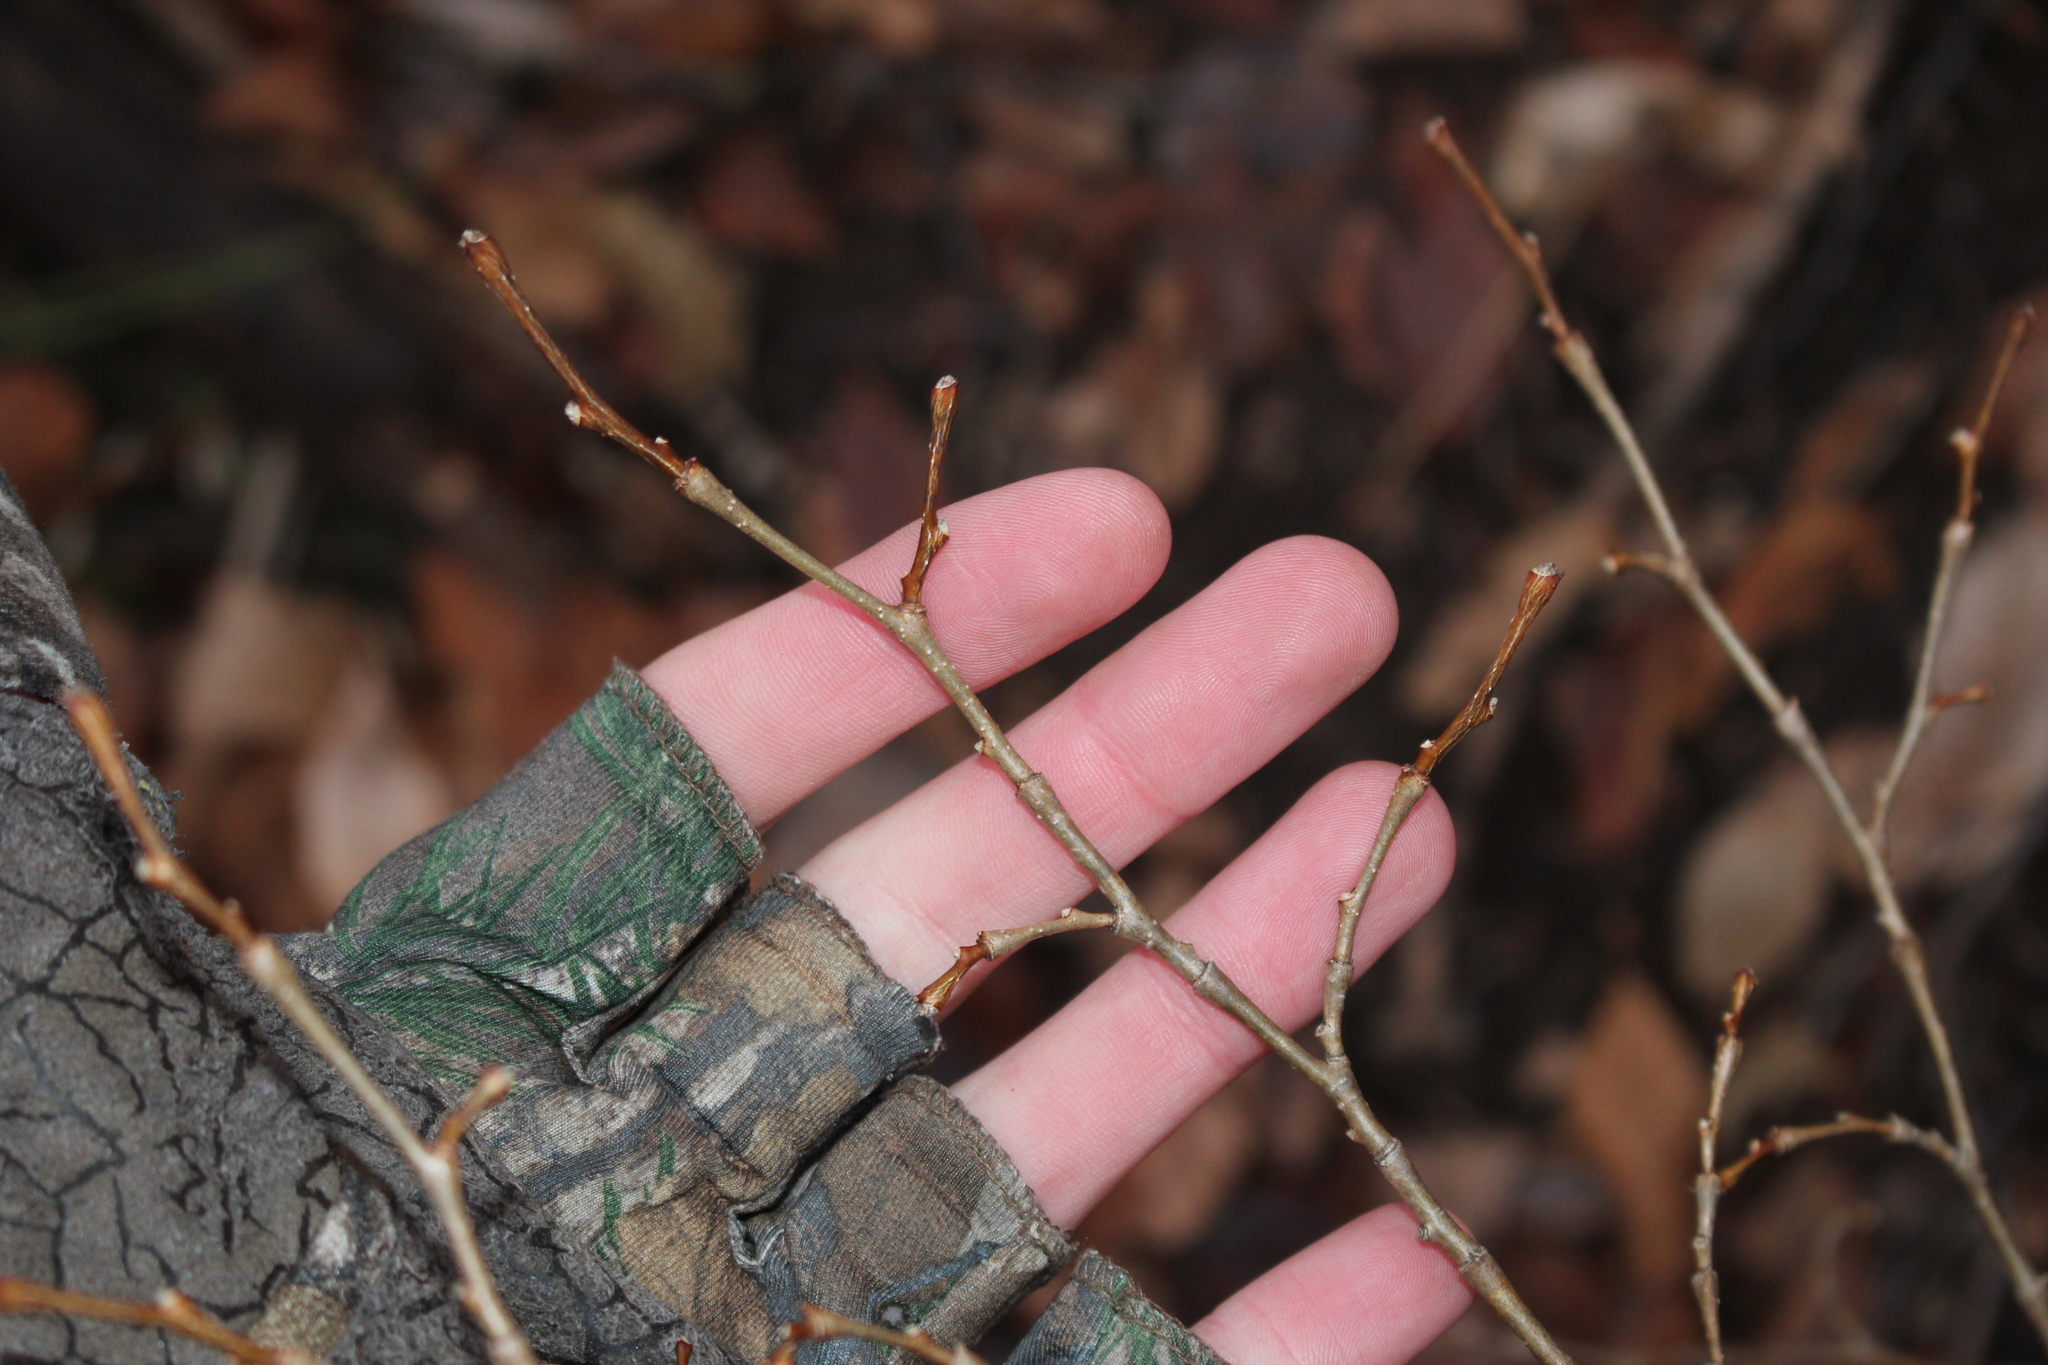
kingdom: Plantae
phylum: Tracheophyta
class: Magnoliopsida
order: Malvales
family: Thymelaeaceae
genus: Dirca
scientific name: Dirca palustris
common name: Leatherwood
